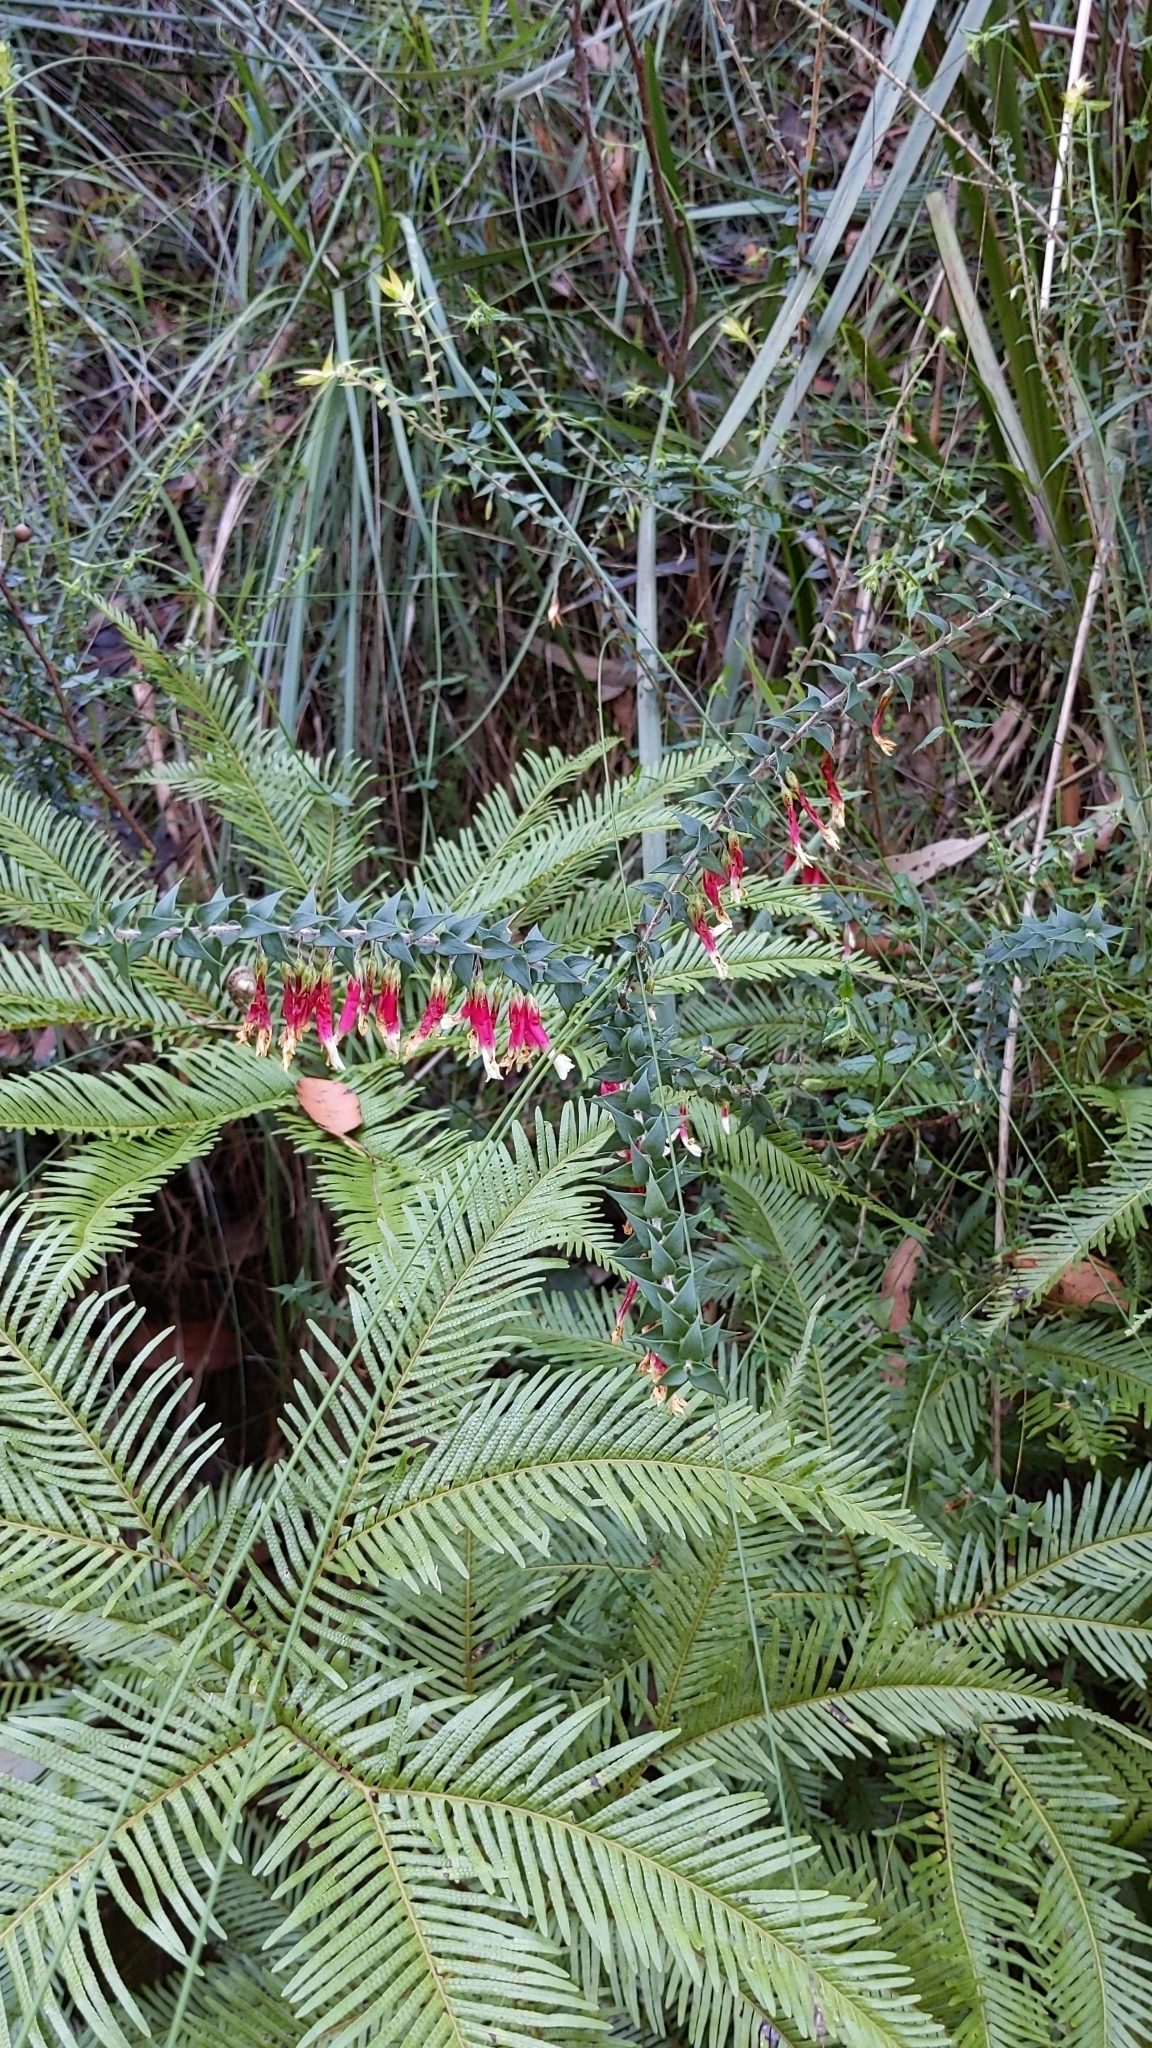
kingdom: Plantae
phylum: Tracheophyta
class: Magnoliopsida
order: Ericales
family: Ericaceae
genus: Epacris
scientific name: Epacris longiflora
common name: Fuchsia-heath
